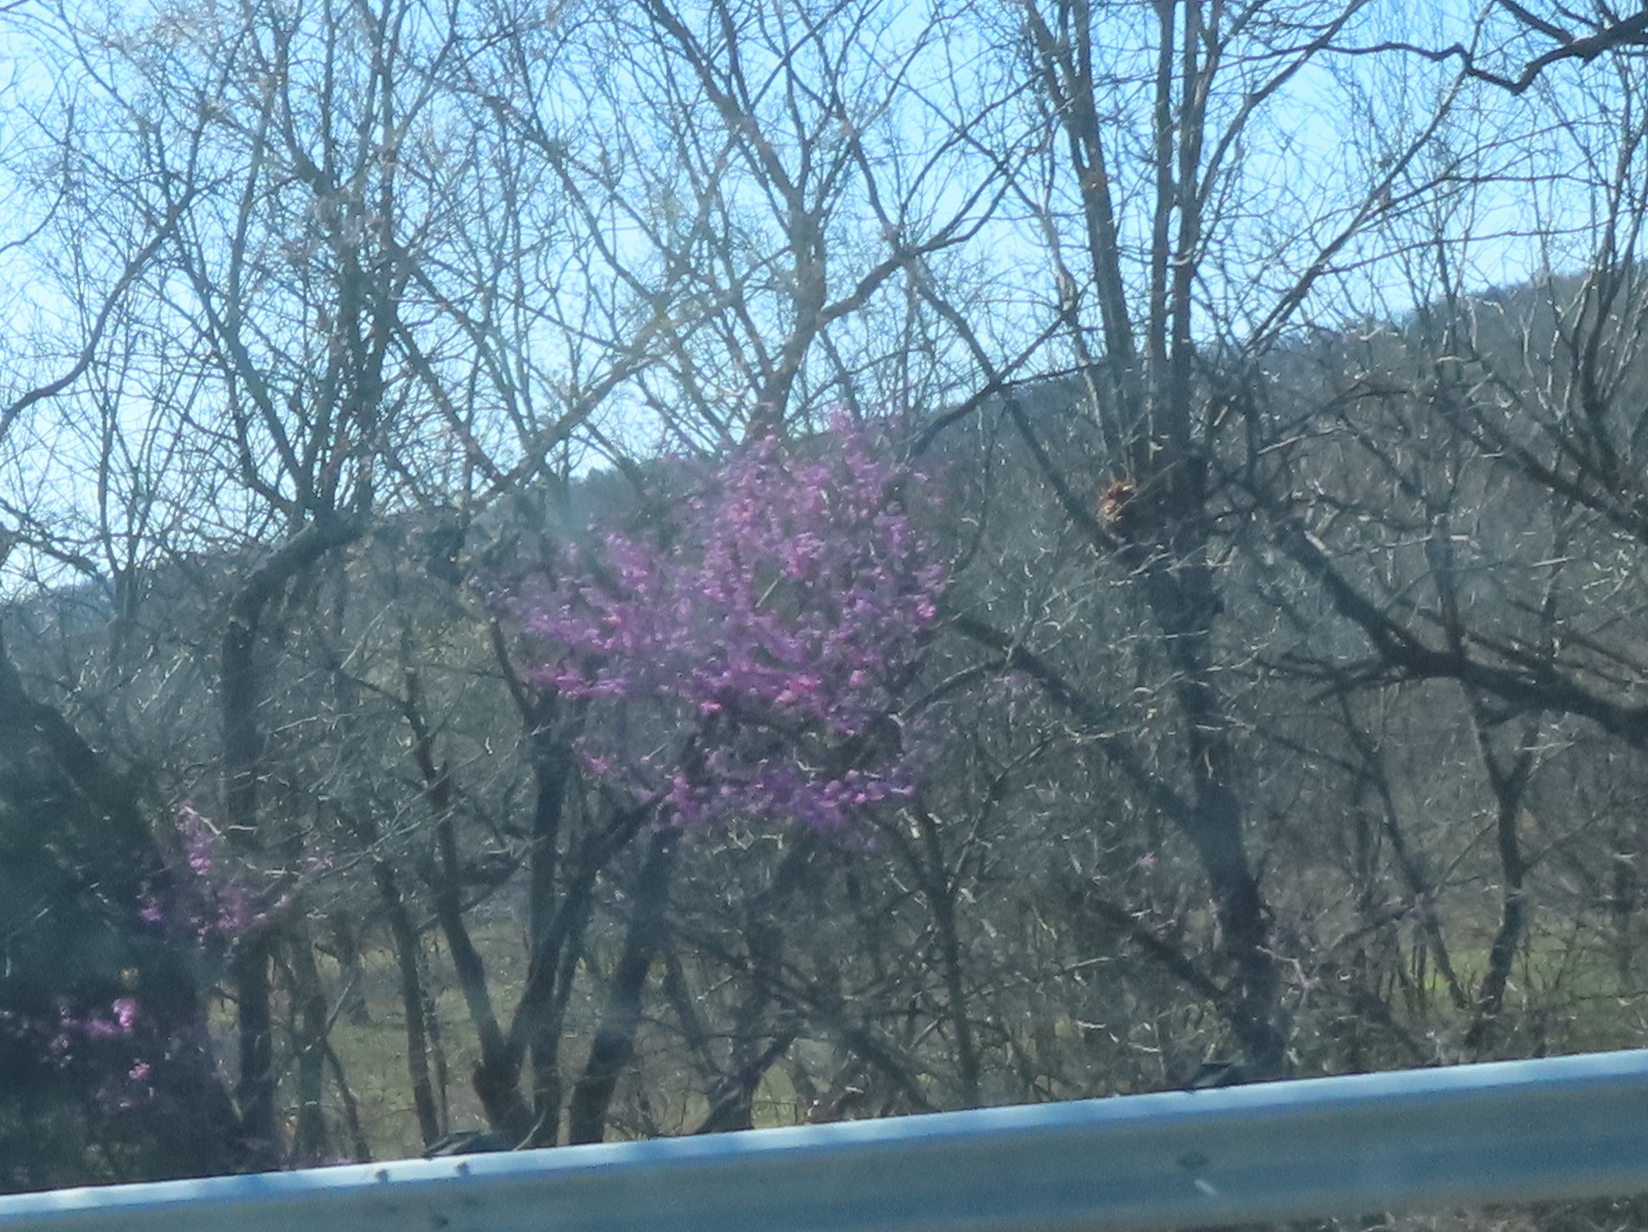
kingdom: Plantae
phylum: Tracheophyta
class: Magnoliopsida
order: Fabales
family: Fabaceae
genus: Cercis
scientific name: Cercis canadensis
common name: Eastern redbud
